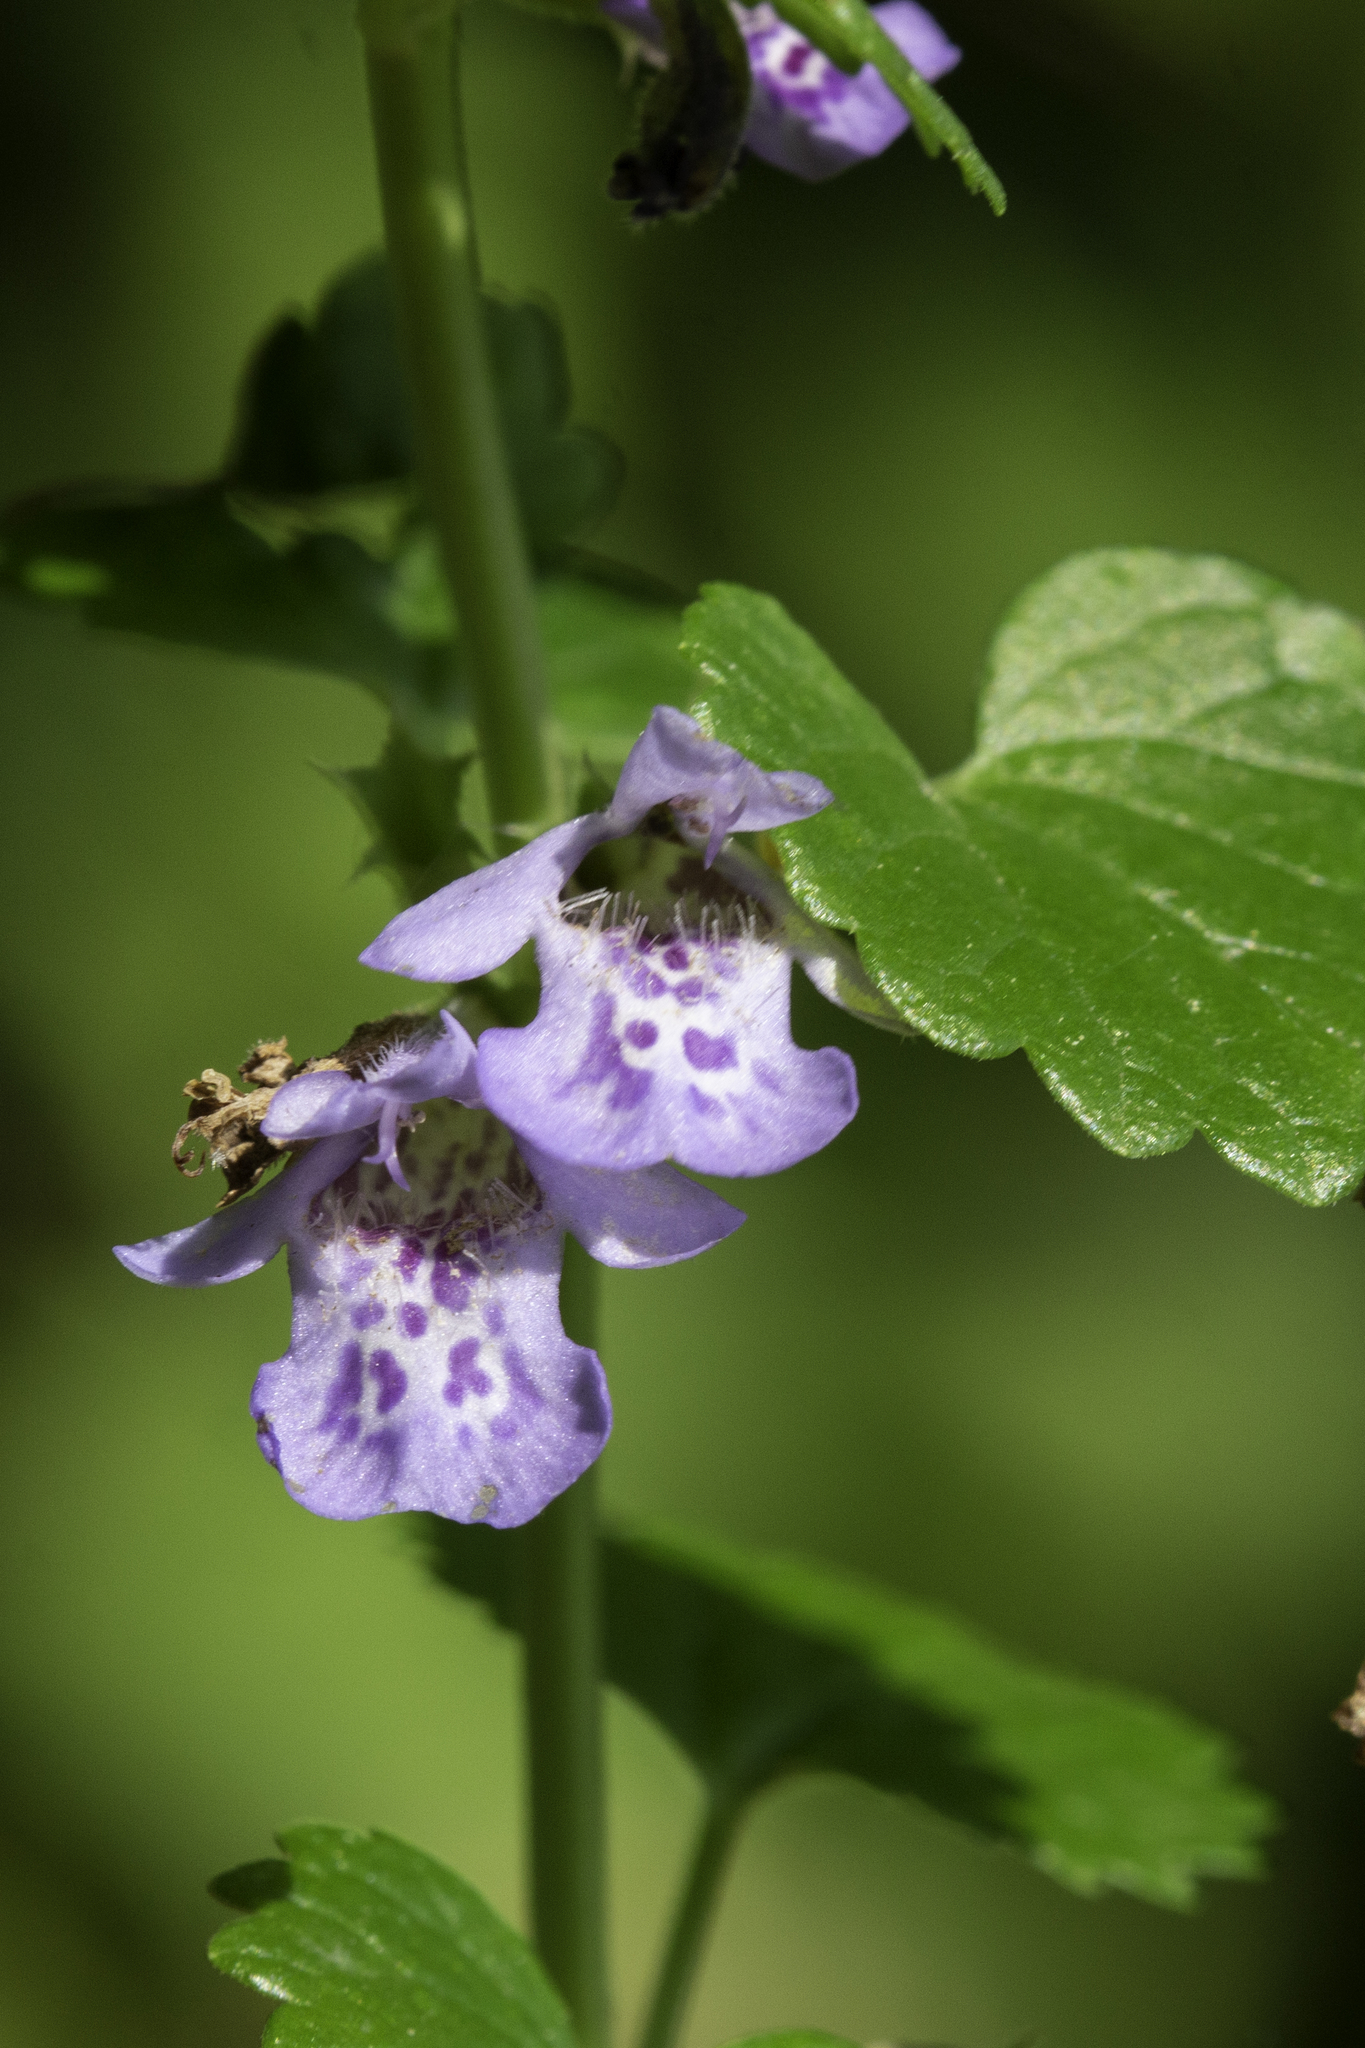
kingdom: Plantae
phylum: Tracheophyta
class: Magnoliopsida
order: Lamiales
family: Lamiaceae
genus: Glechoma
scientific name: Glechoma hederacea
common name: Ground ivy
